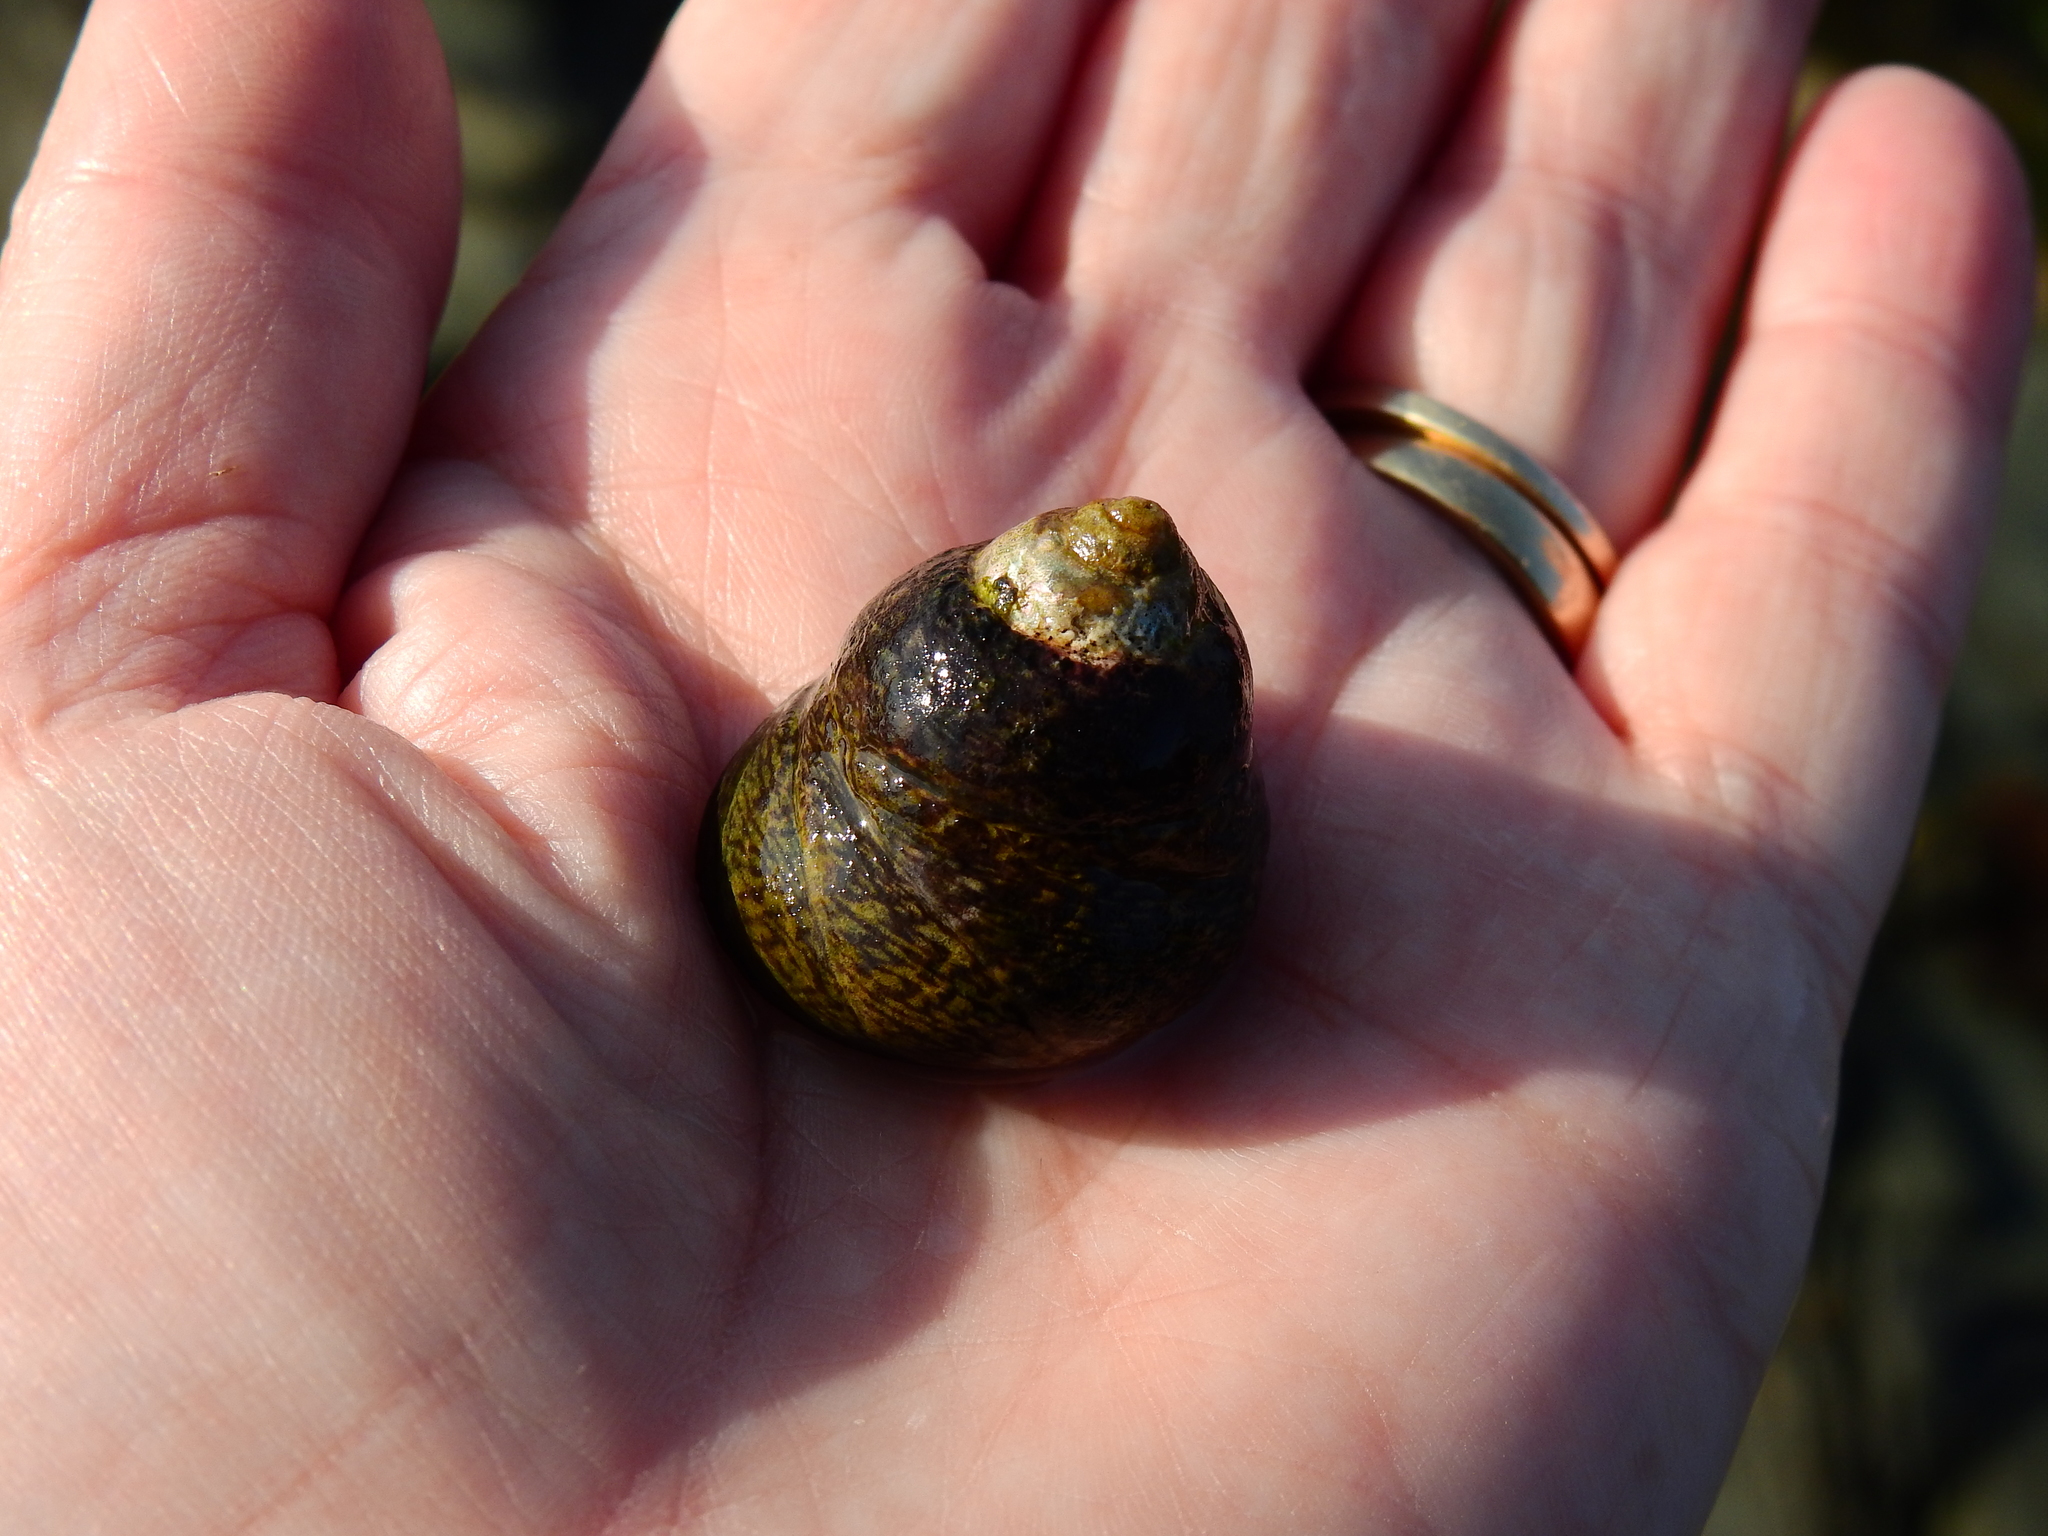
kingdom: Animalia
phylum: Mollusca
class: Gastropoda
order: Trochida
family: Trochidae
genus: Phorcus
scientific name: Phorcus lineatus
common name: Toothed top shell
